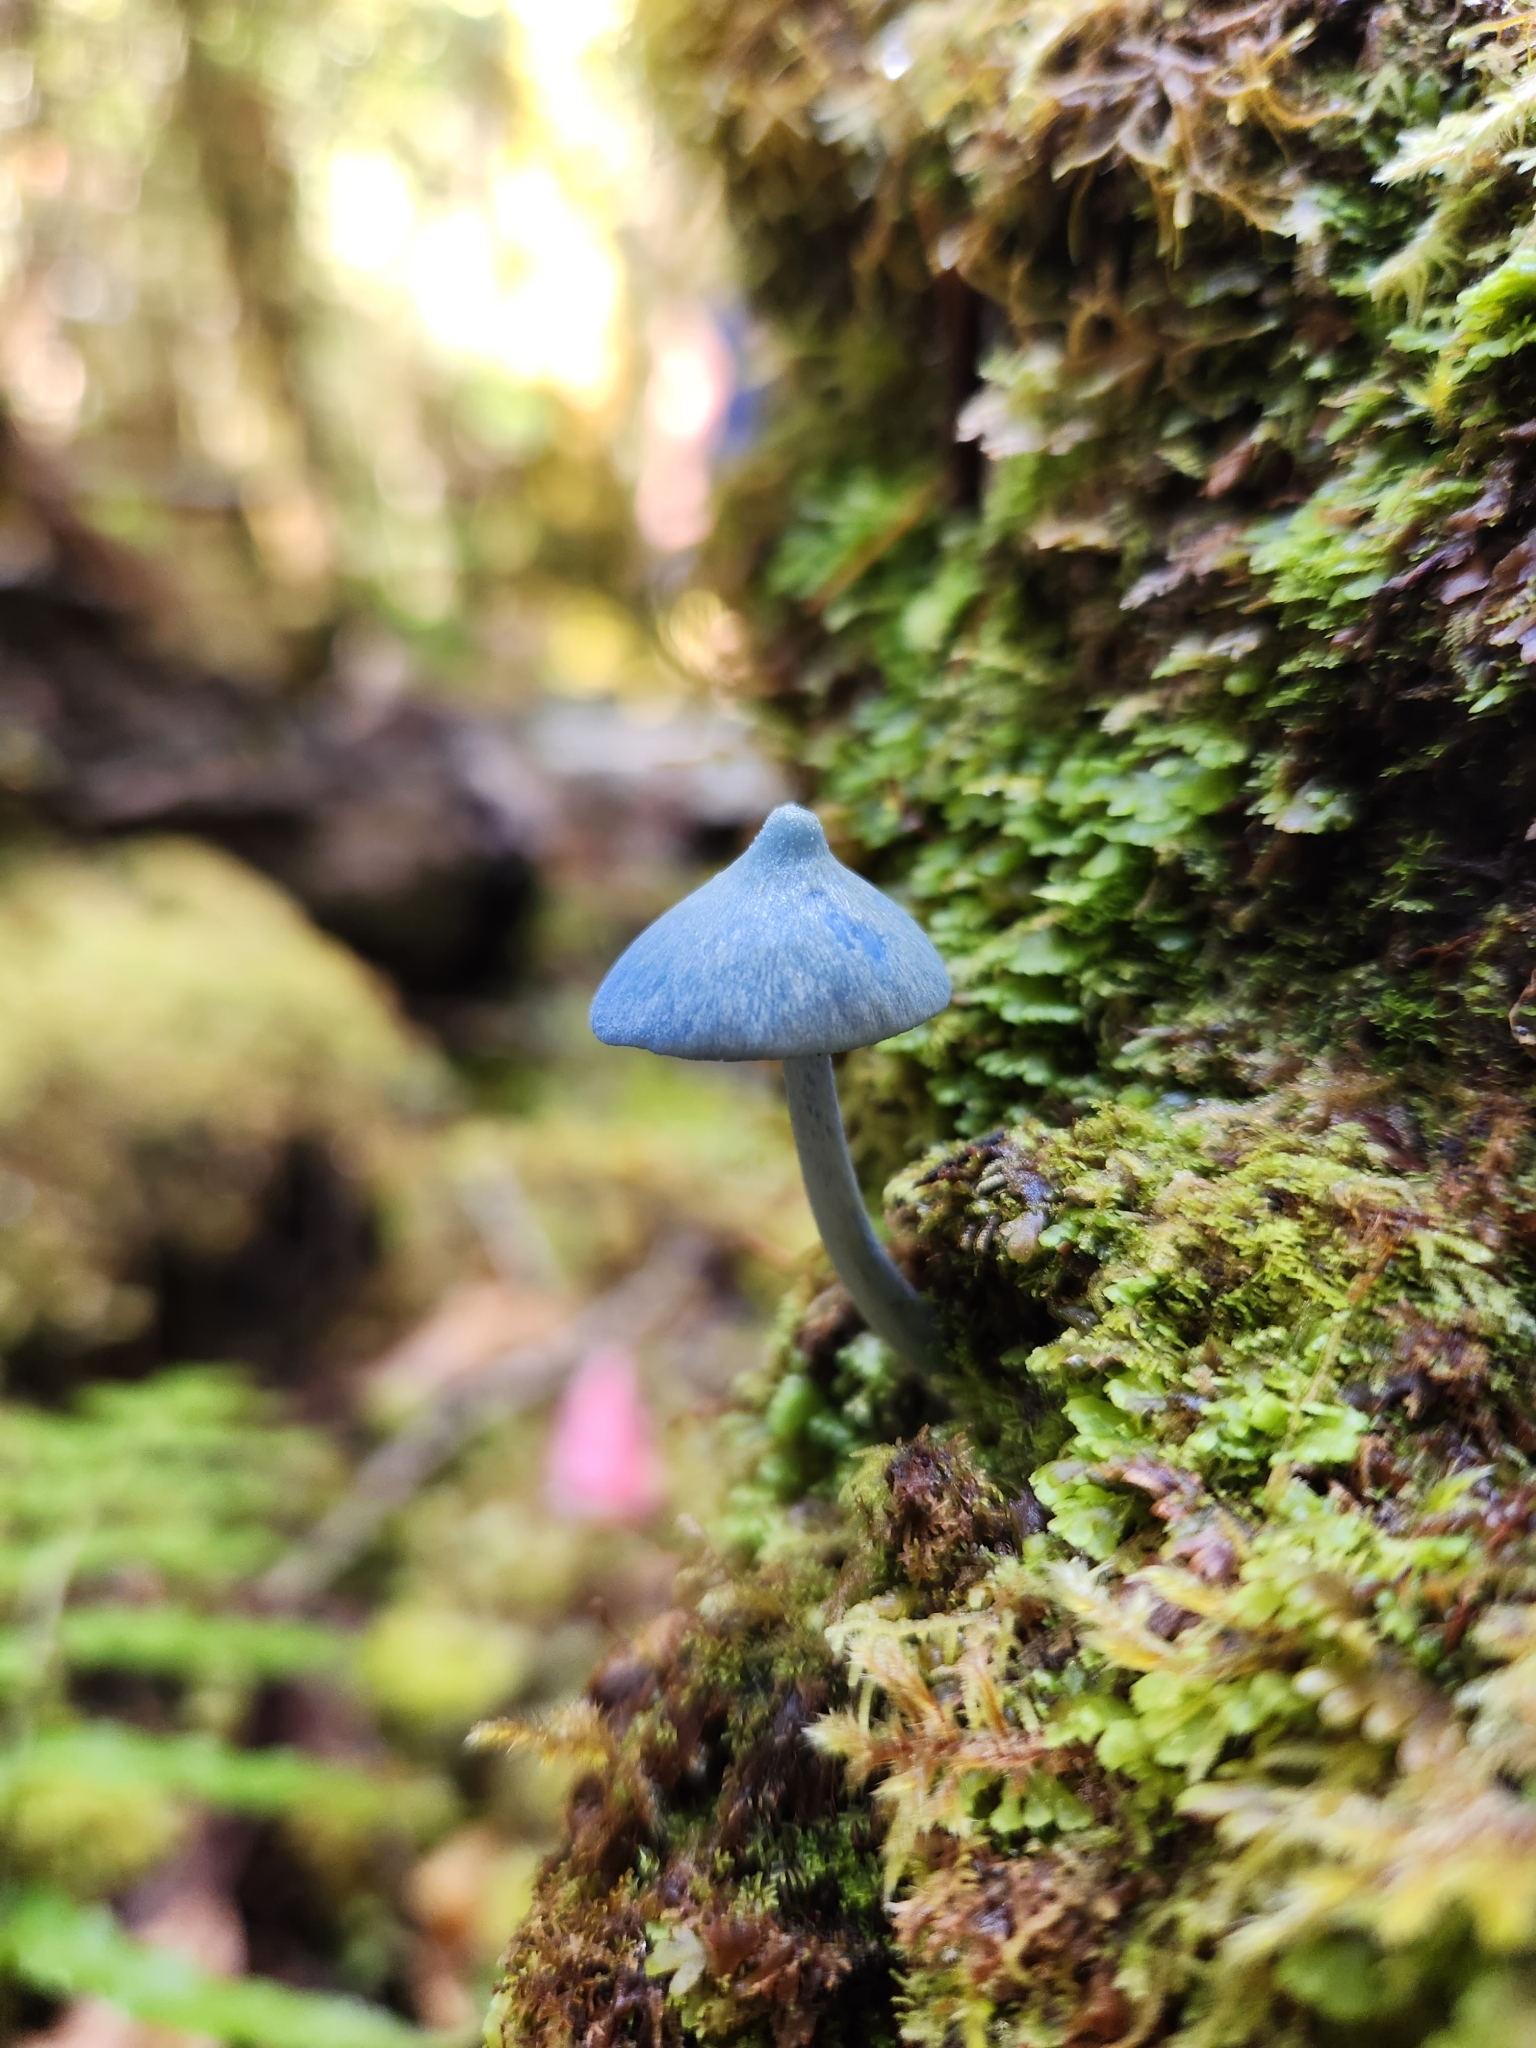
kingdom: Fungi
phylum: Basidiomycota
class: Agaricomycetes
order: Agaricales
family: Entolomataceae
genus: Entoloma
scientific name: Entoloma hochstetteri
